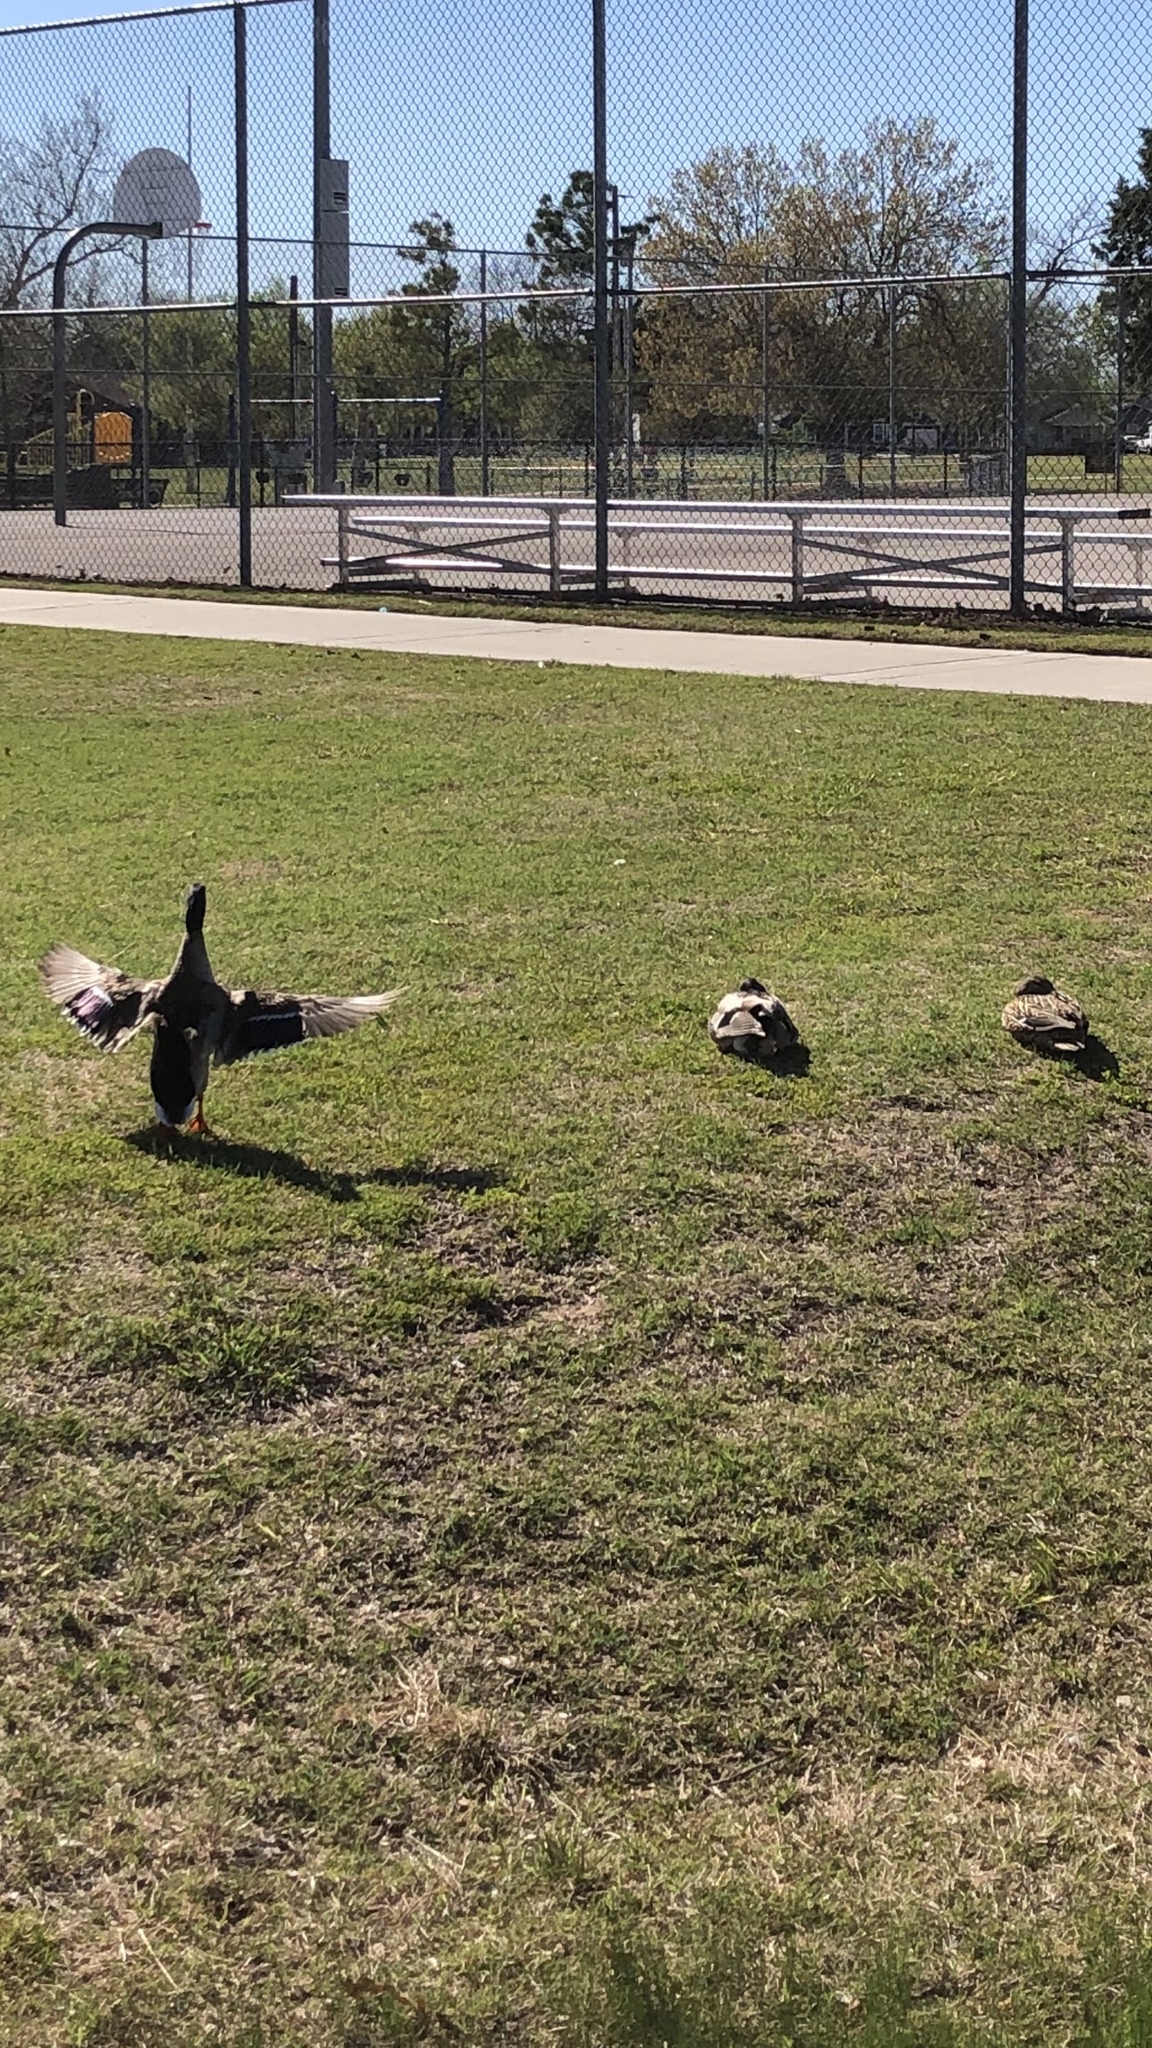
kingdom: Animalia
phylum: Chordata
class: Aves
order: Anseriformes
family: Anatidae
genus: Anas
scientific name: Anas platyrhynchos
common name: Mallard
